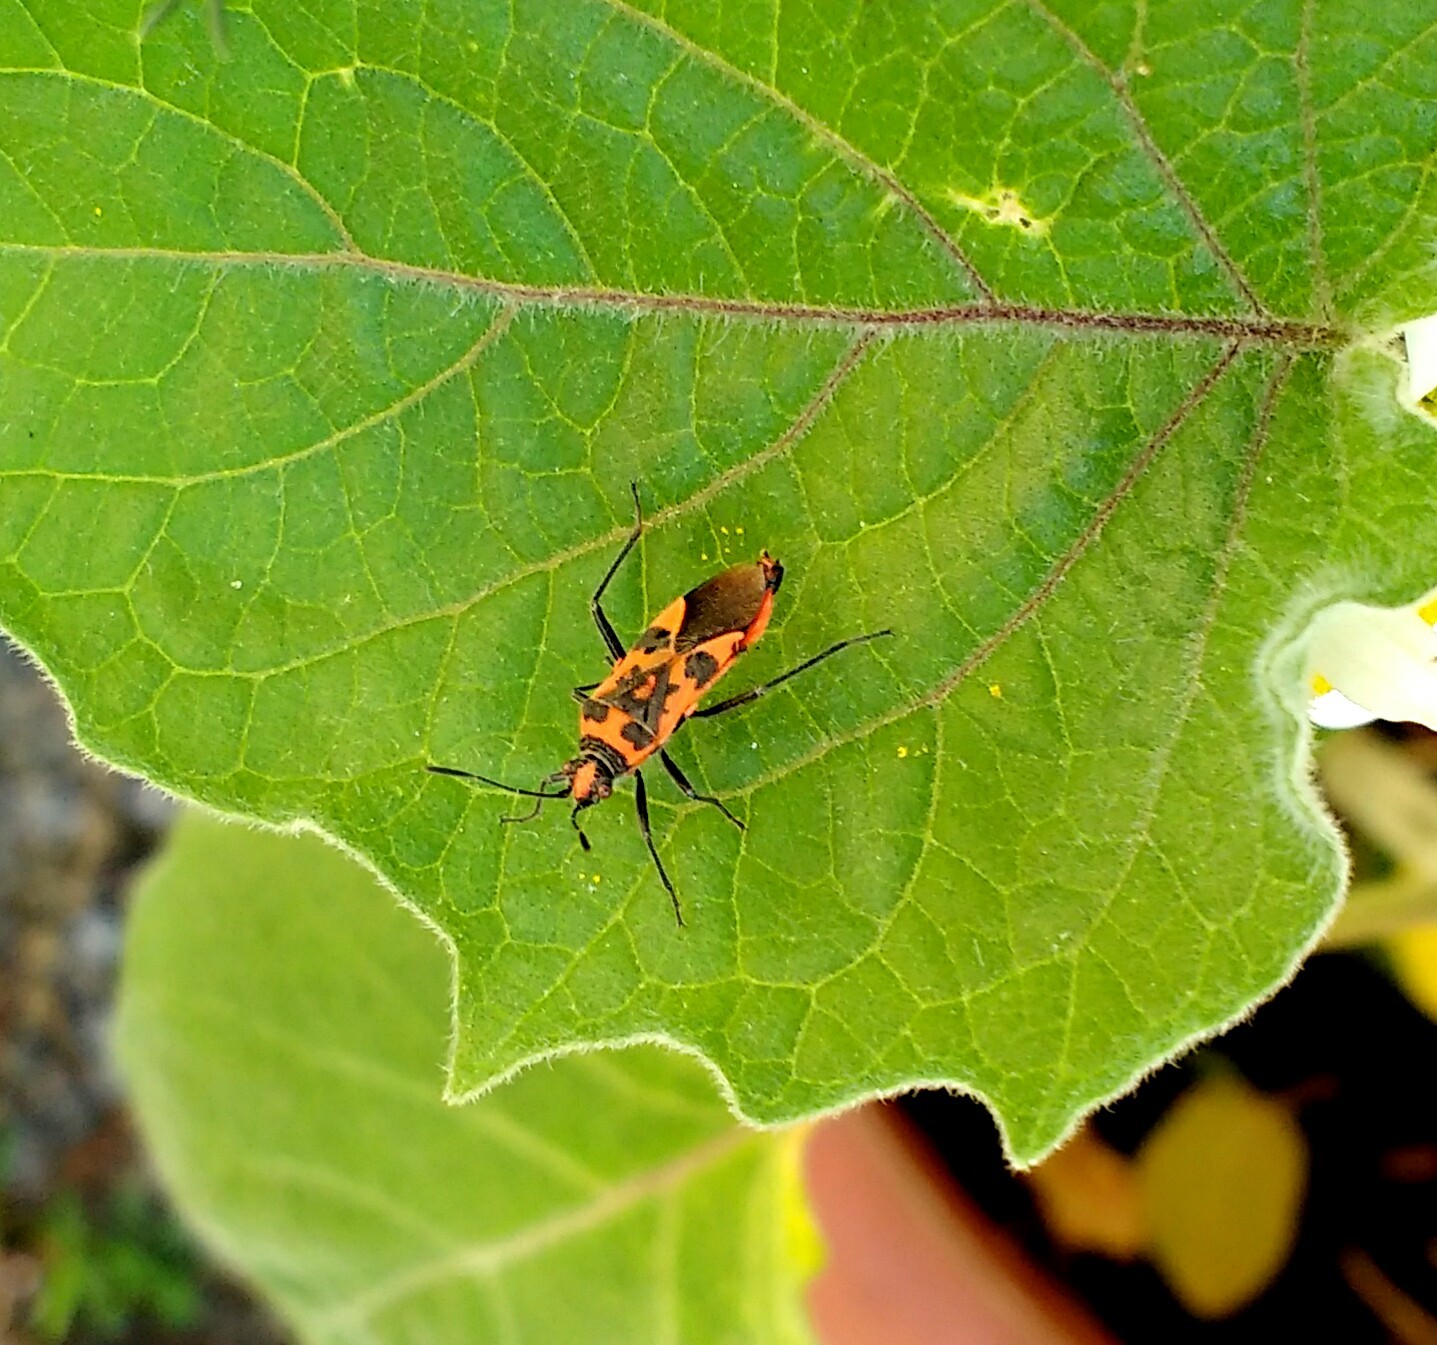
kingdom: Animalia
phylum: Arthropoda
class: Insecta
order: Hemiptera
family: Rhopalidae
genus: Corizus
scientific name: Corizus hyoscyami
